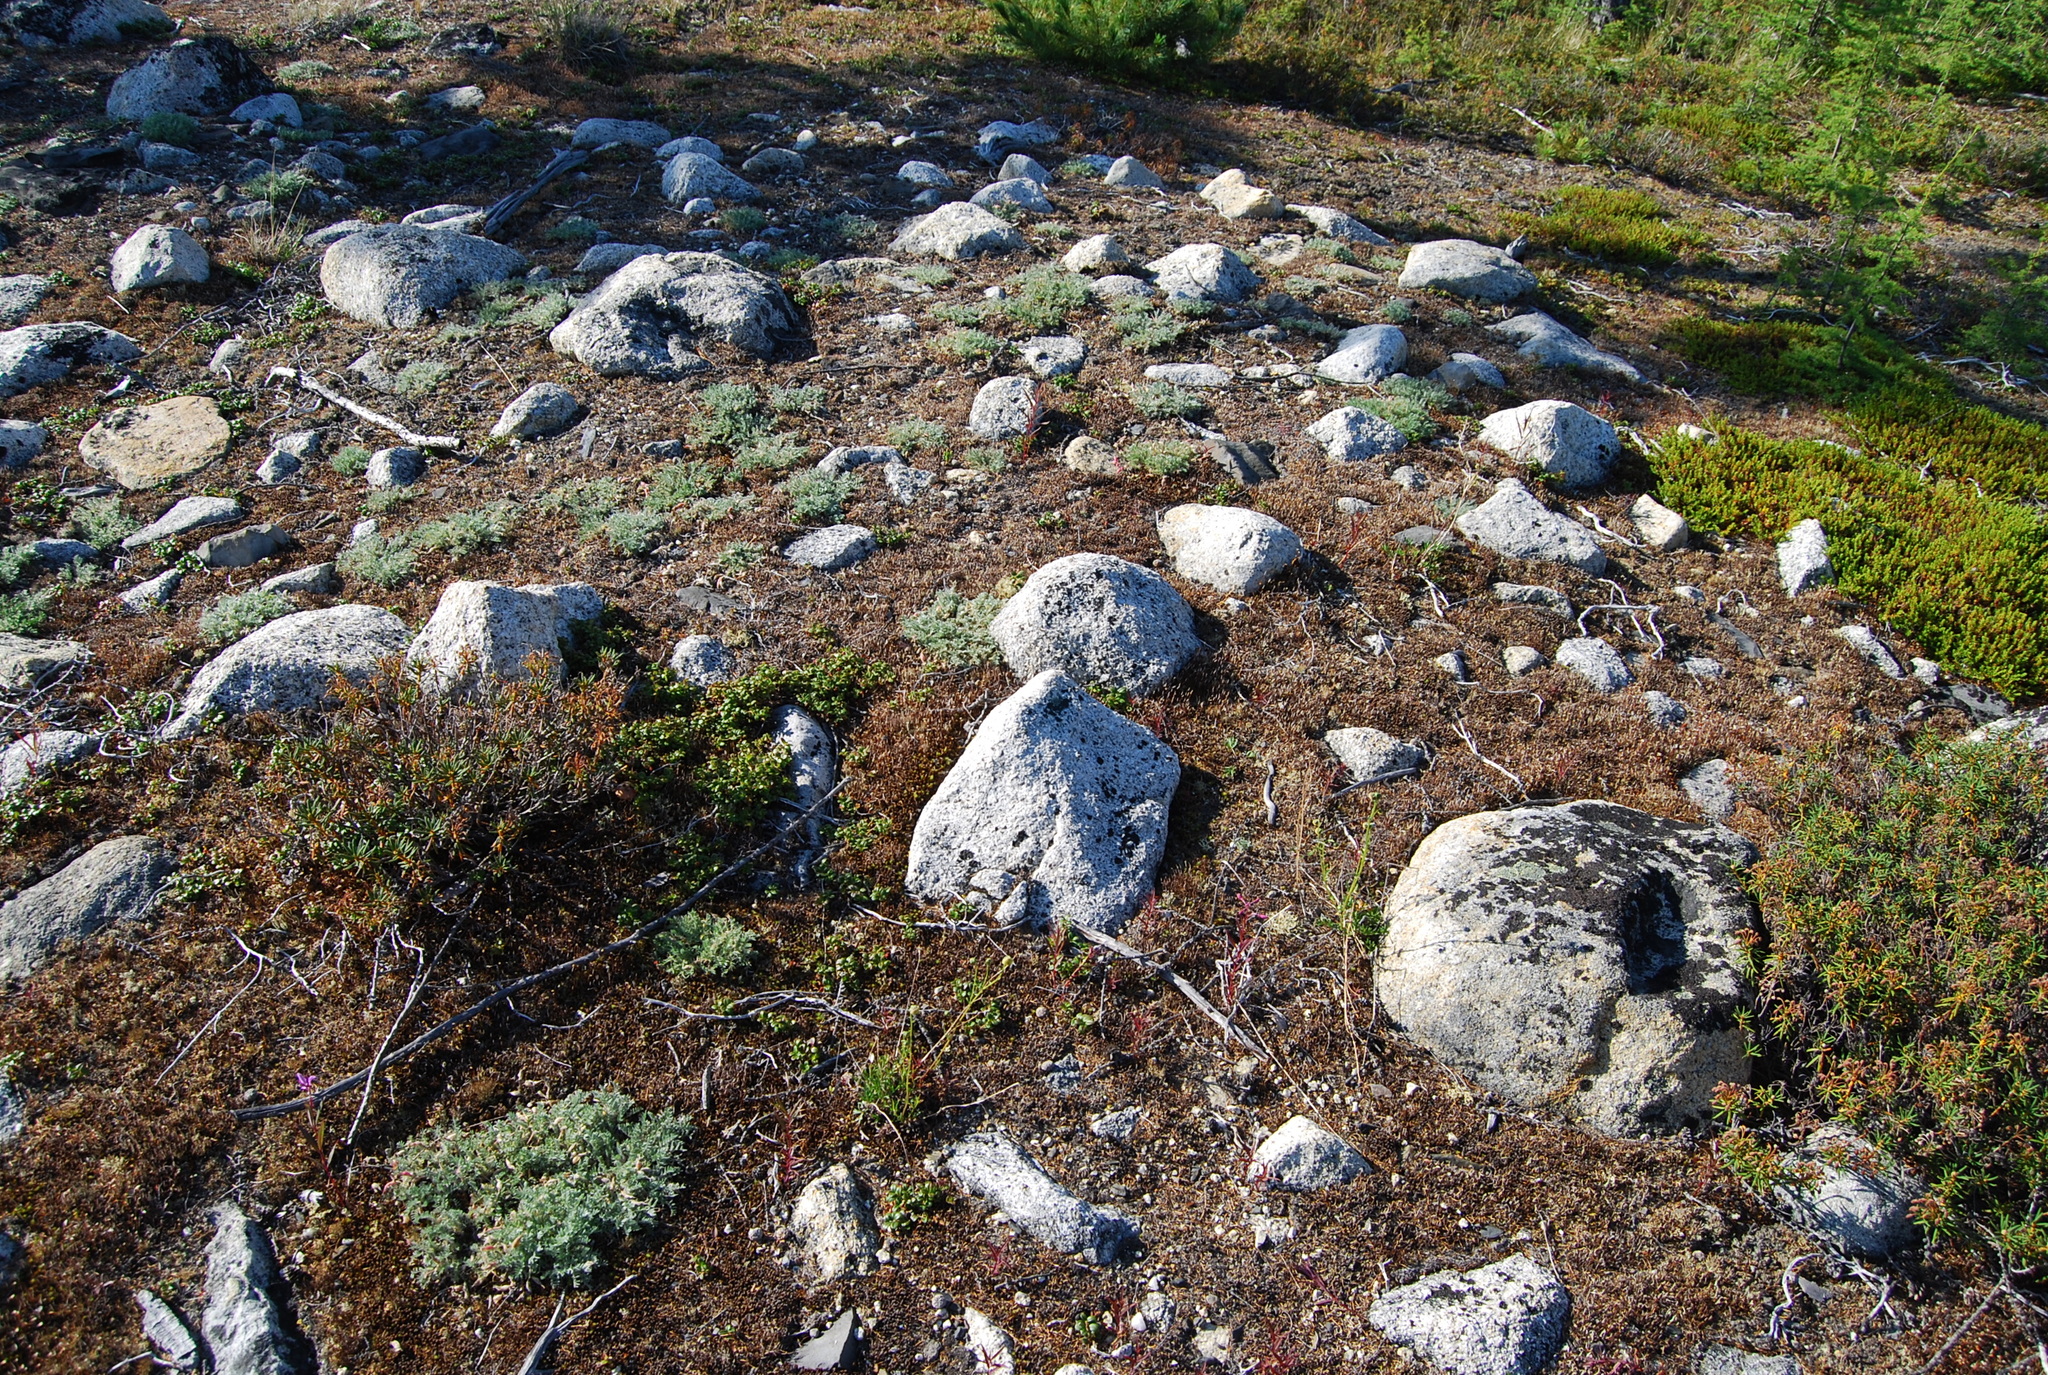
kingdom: Plantae
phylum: Tracheophyta
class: Magnoliopsida
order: Fabales
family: Fabaceae
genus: Oxytropis
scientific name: Oxytropis susumanica
